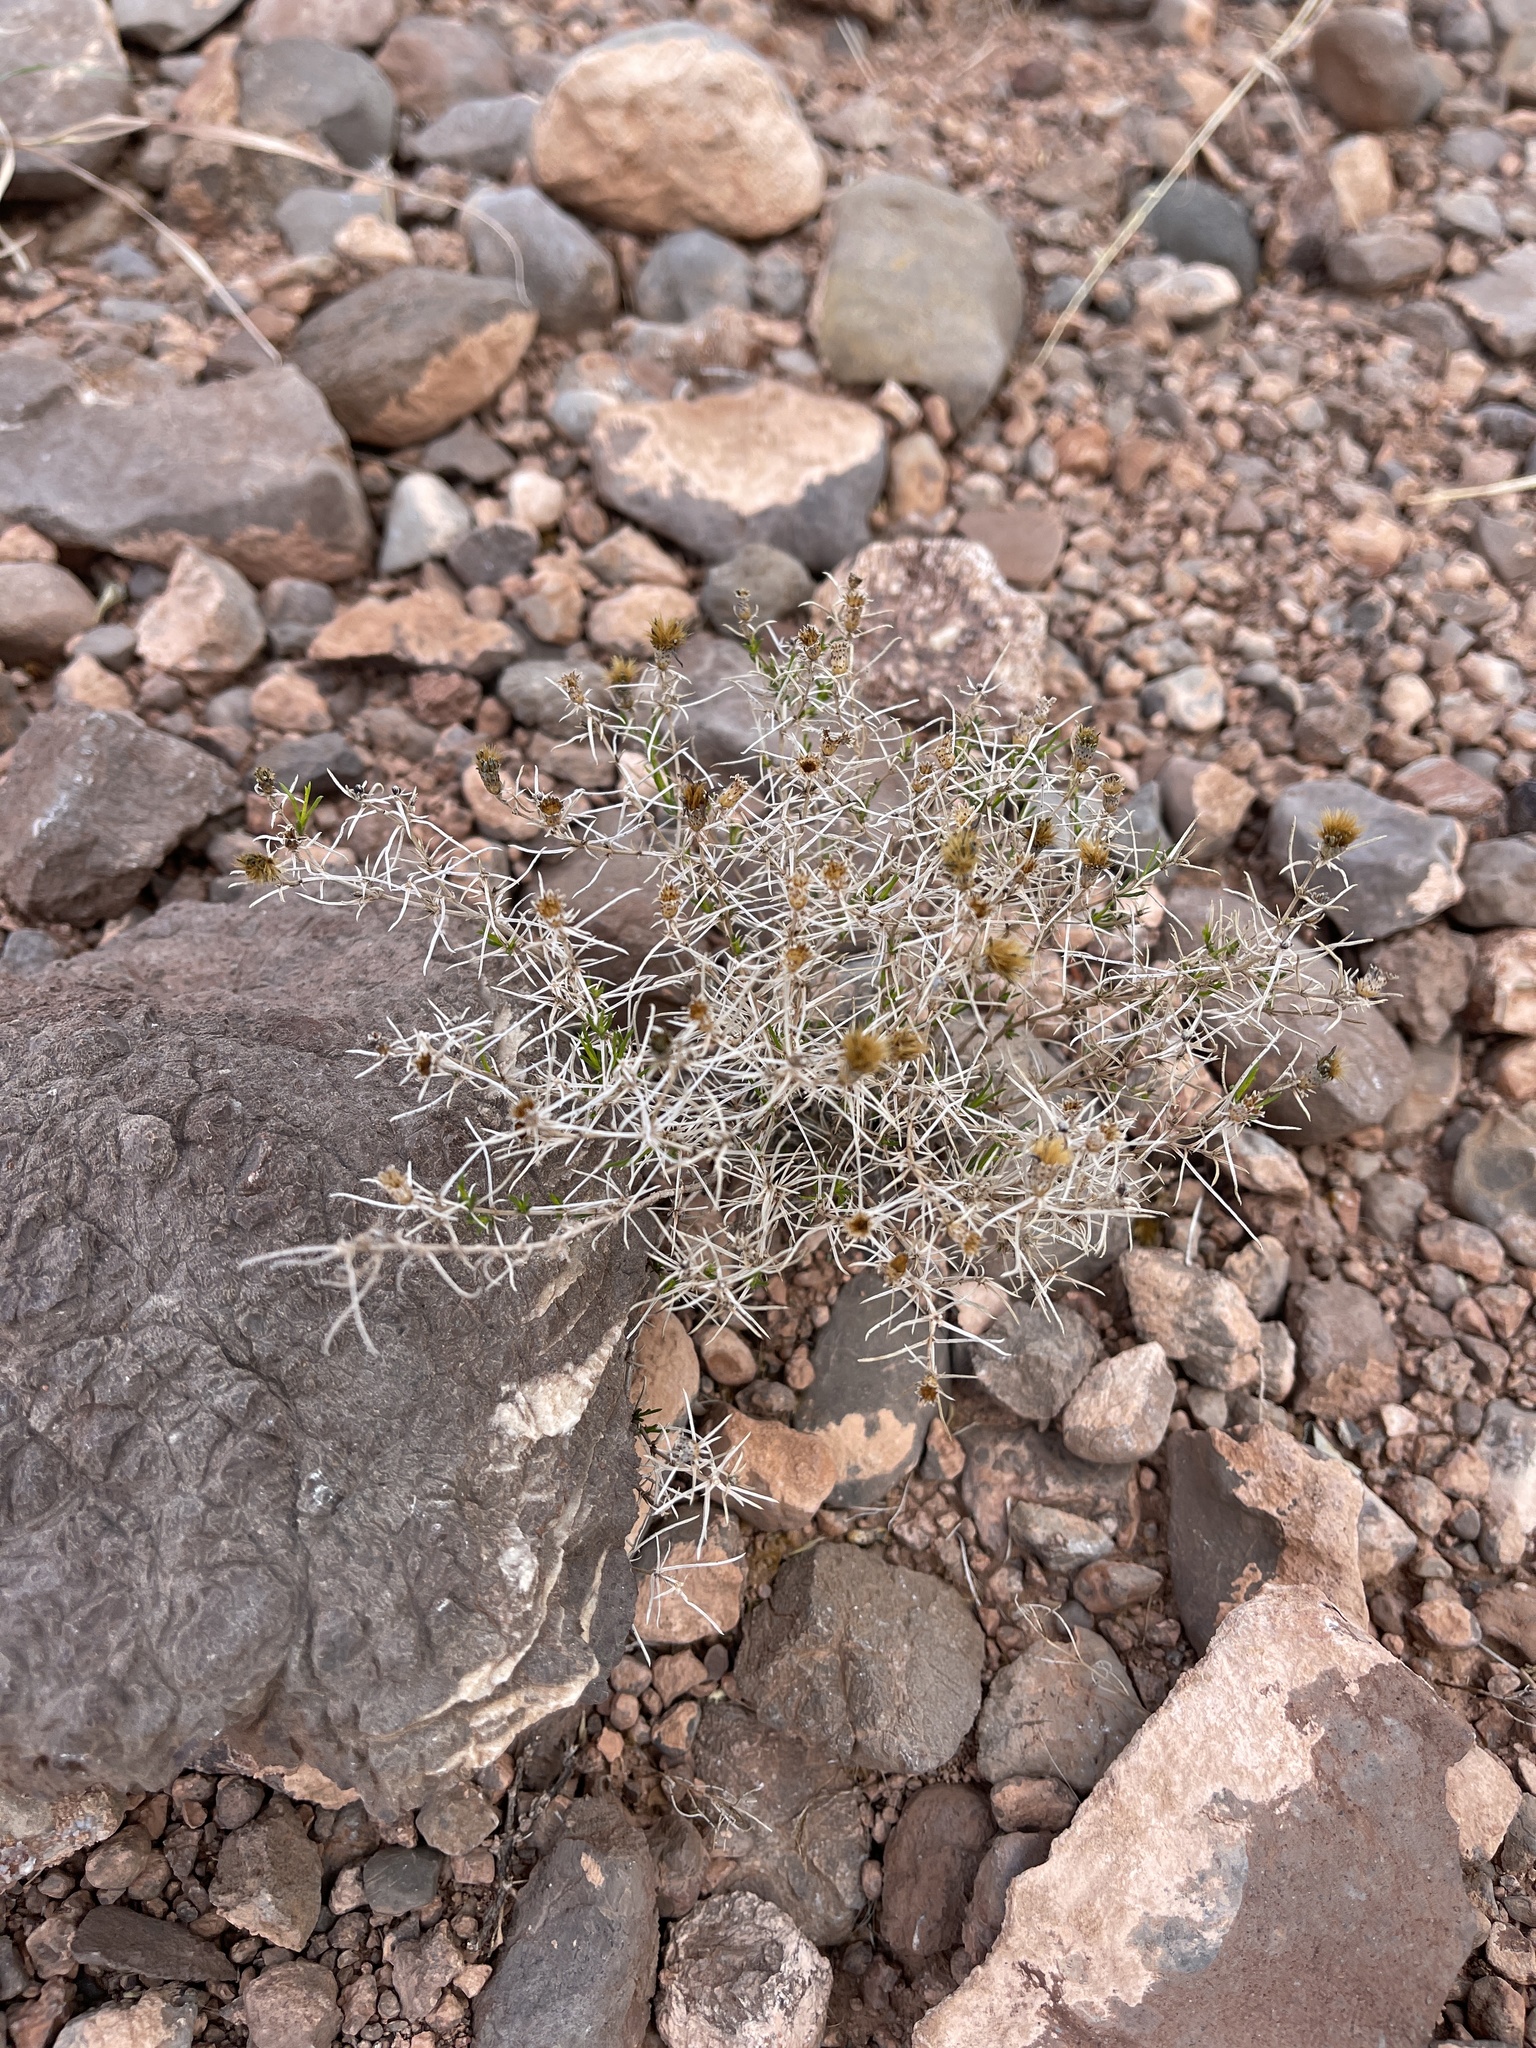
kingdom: Plantae
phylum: Tracheophyta
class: Magnoliopsida
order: Asterales
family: Asteraceae
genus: Thymophylla
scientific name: Thymophylla acerosa
